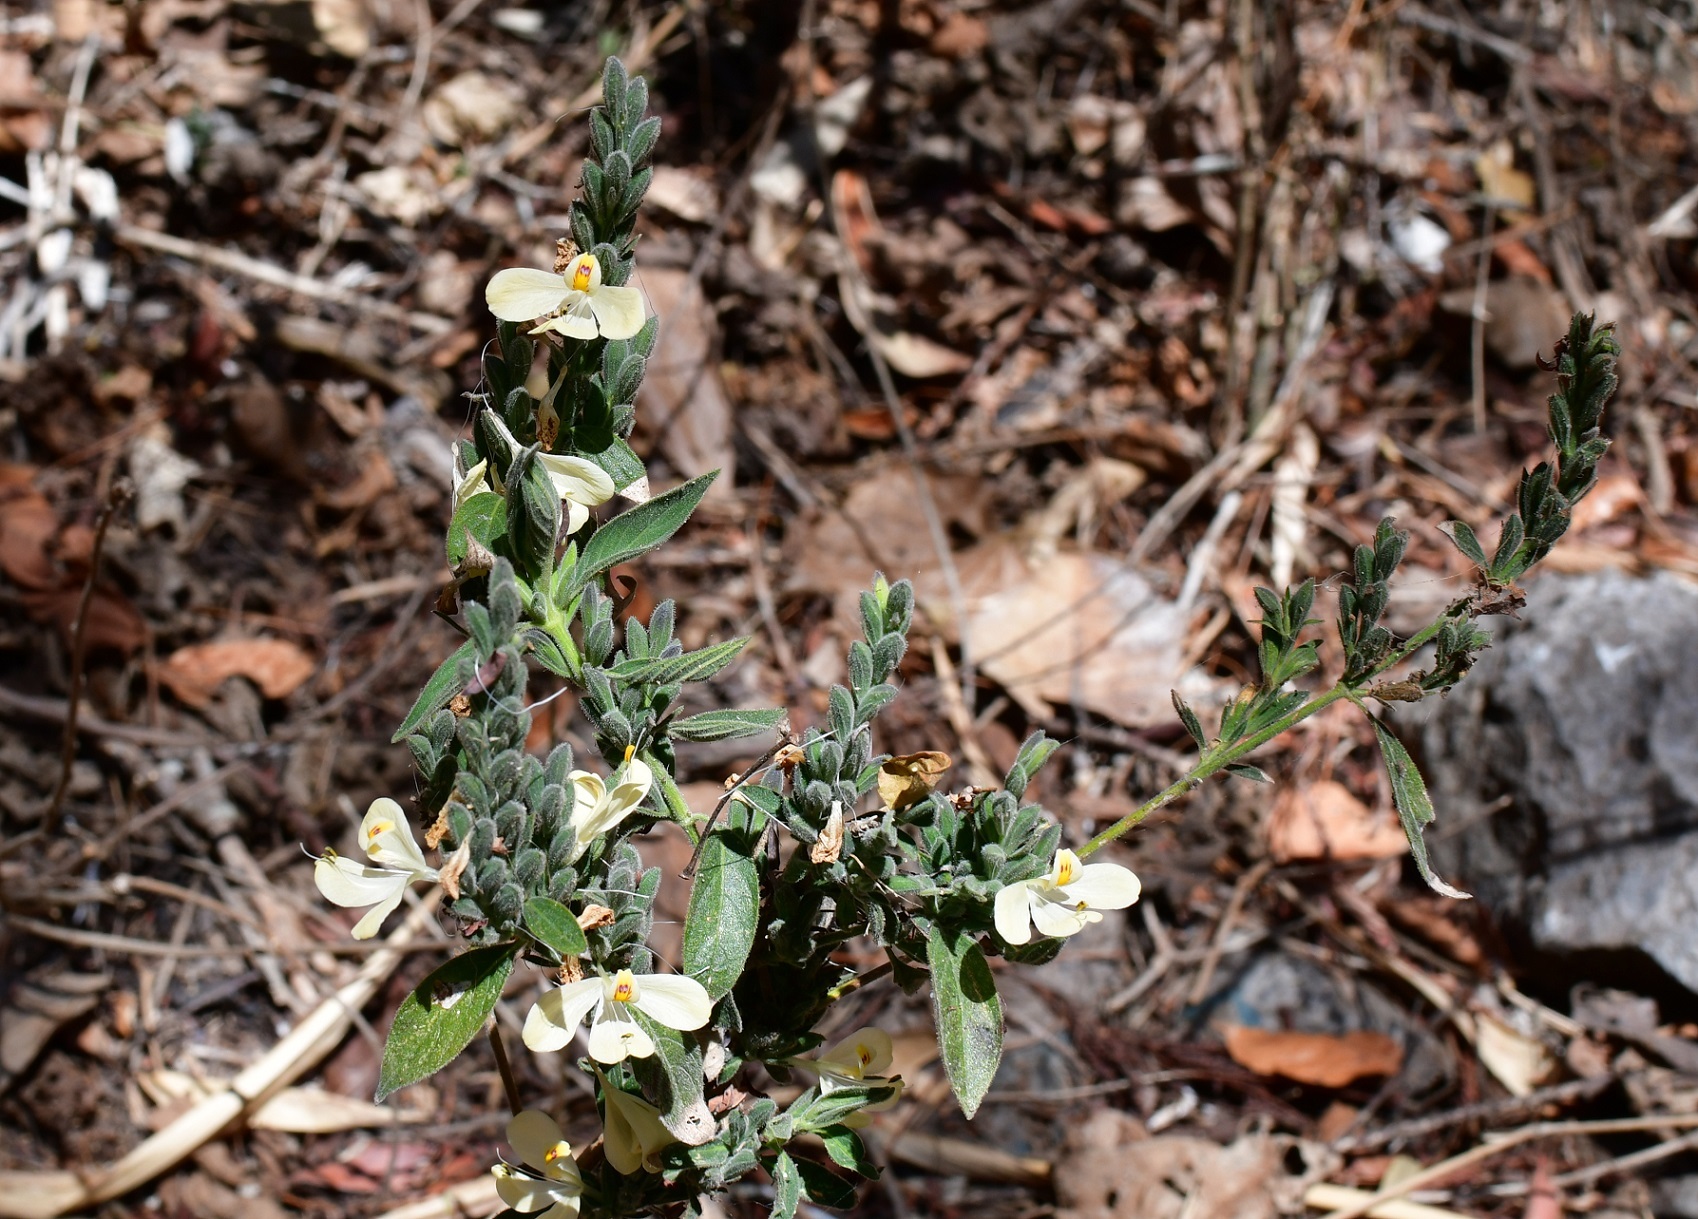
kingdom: Plantae
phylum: Tracheophyta
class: Magnoliopsida
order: Lamiales
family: Acanthaceae
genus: Henrya
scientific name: Henrya insularis
